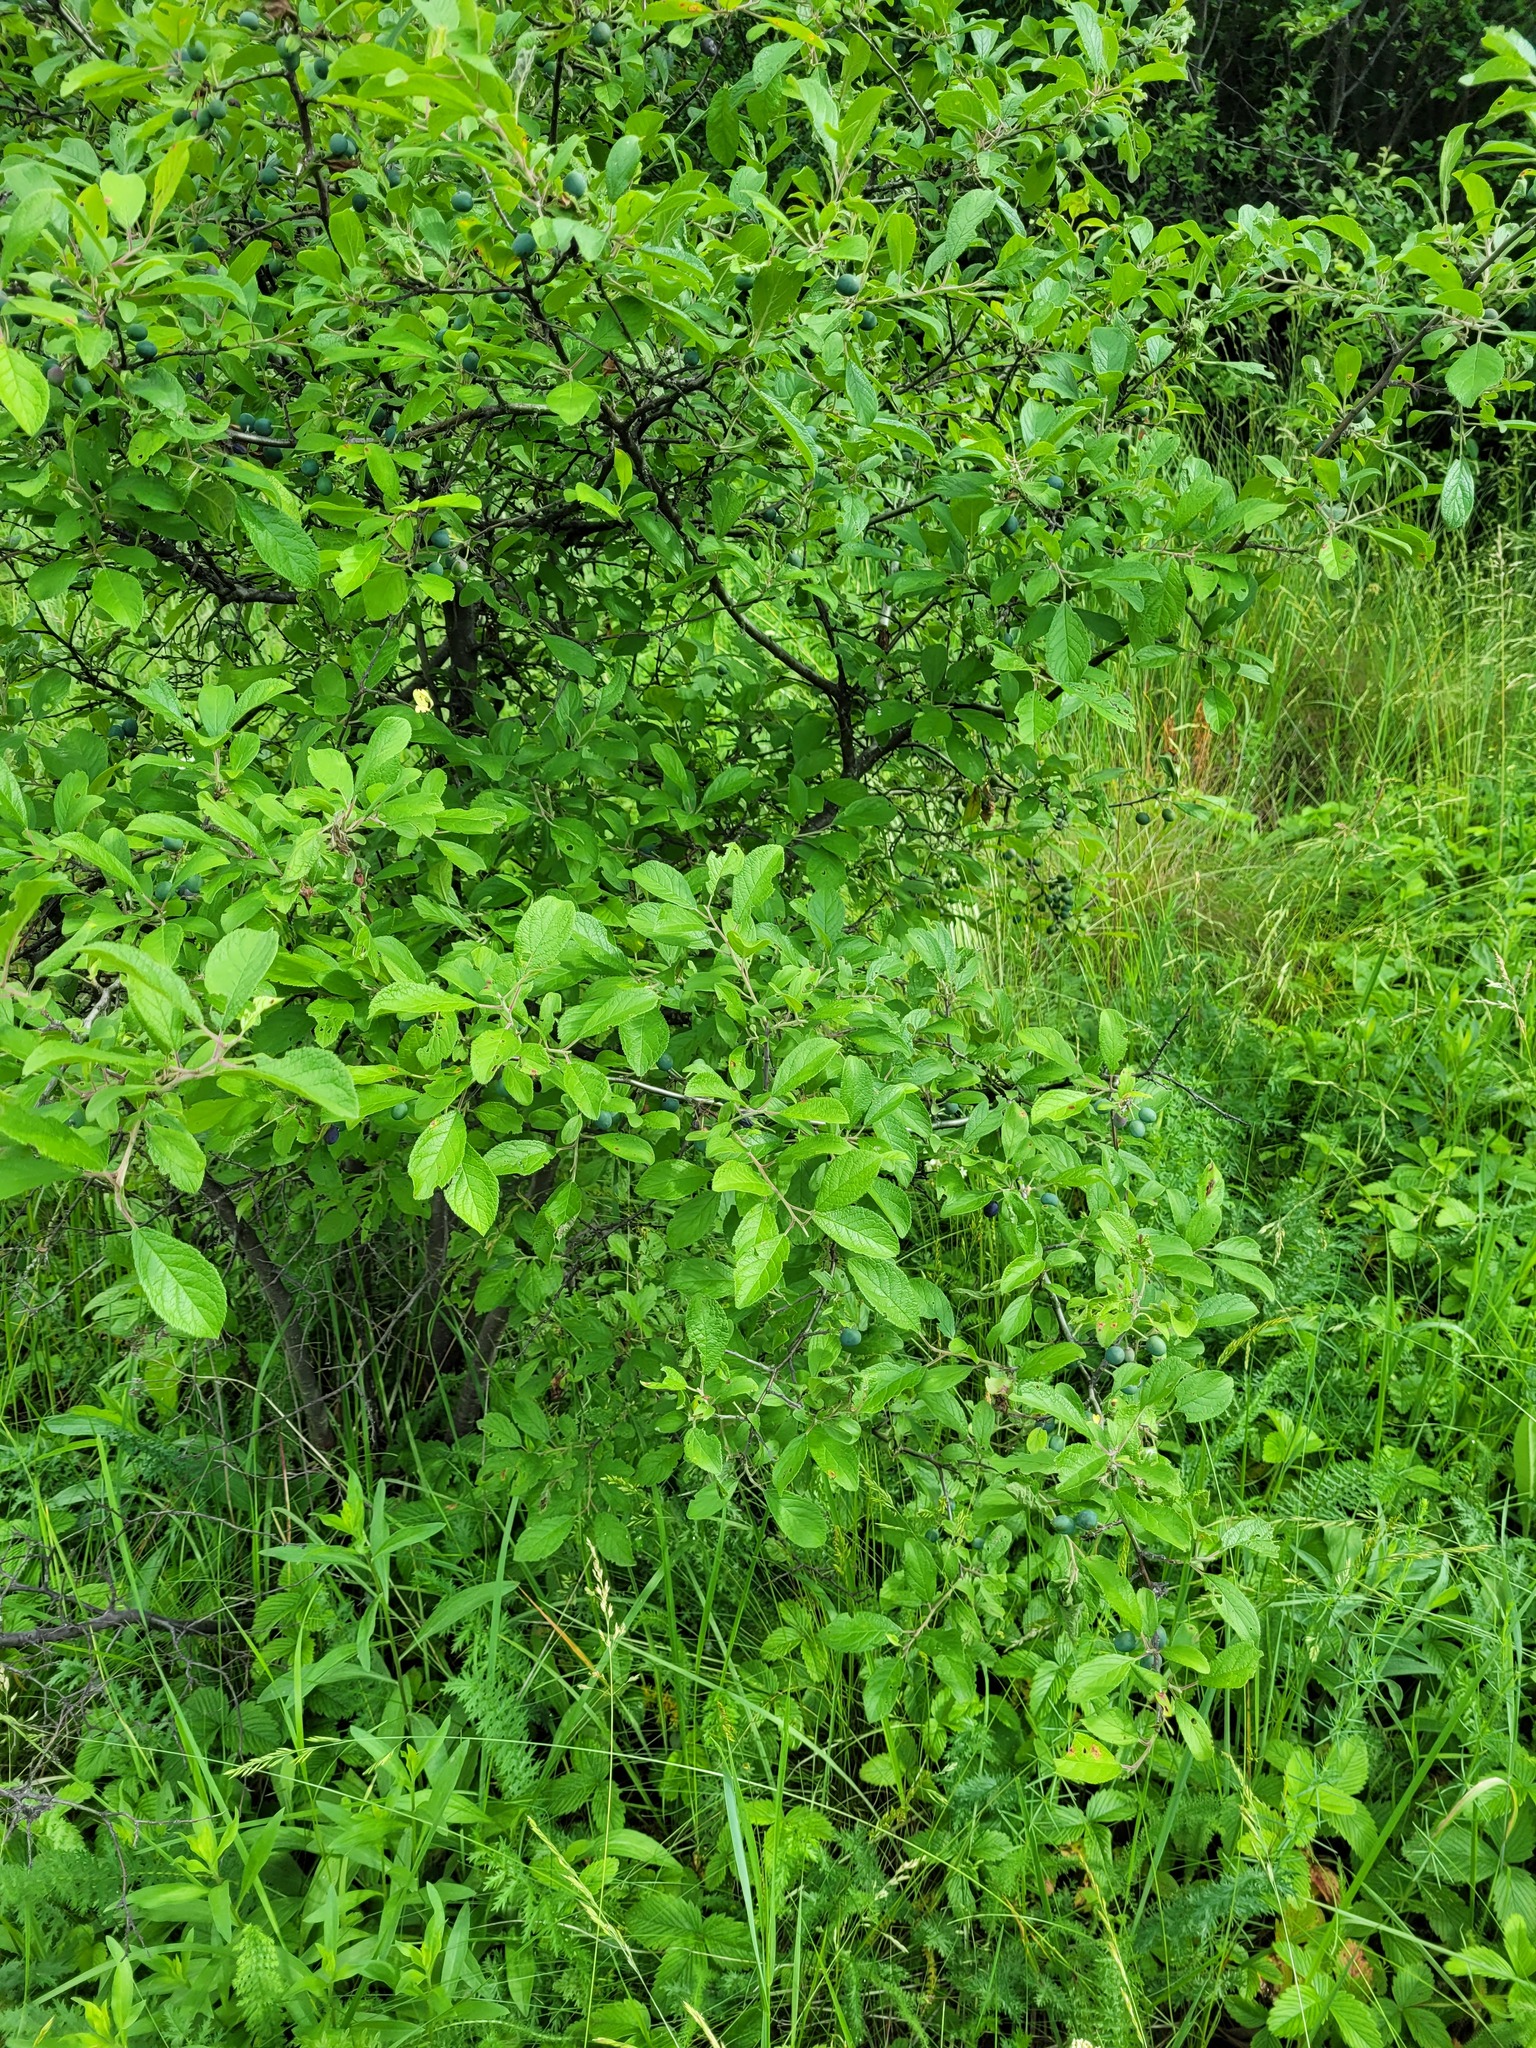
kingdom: Plantae
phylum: Tracheophyta
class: Magnoliopsida
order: Rosales
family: Rosaceae
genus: Prunus
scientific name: Prunus spinosa
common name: Blackthorn
